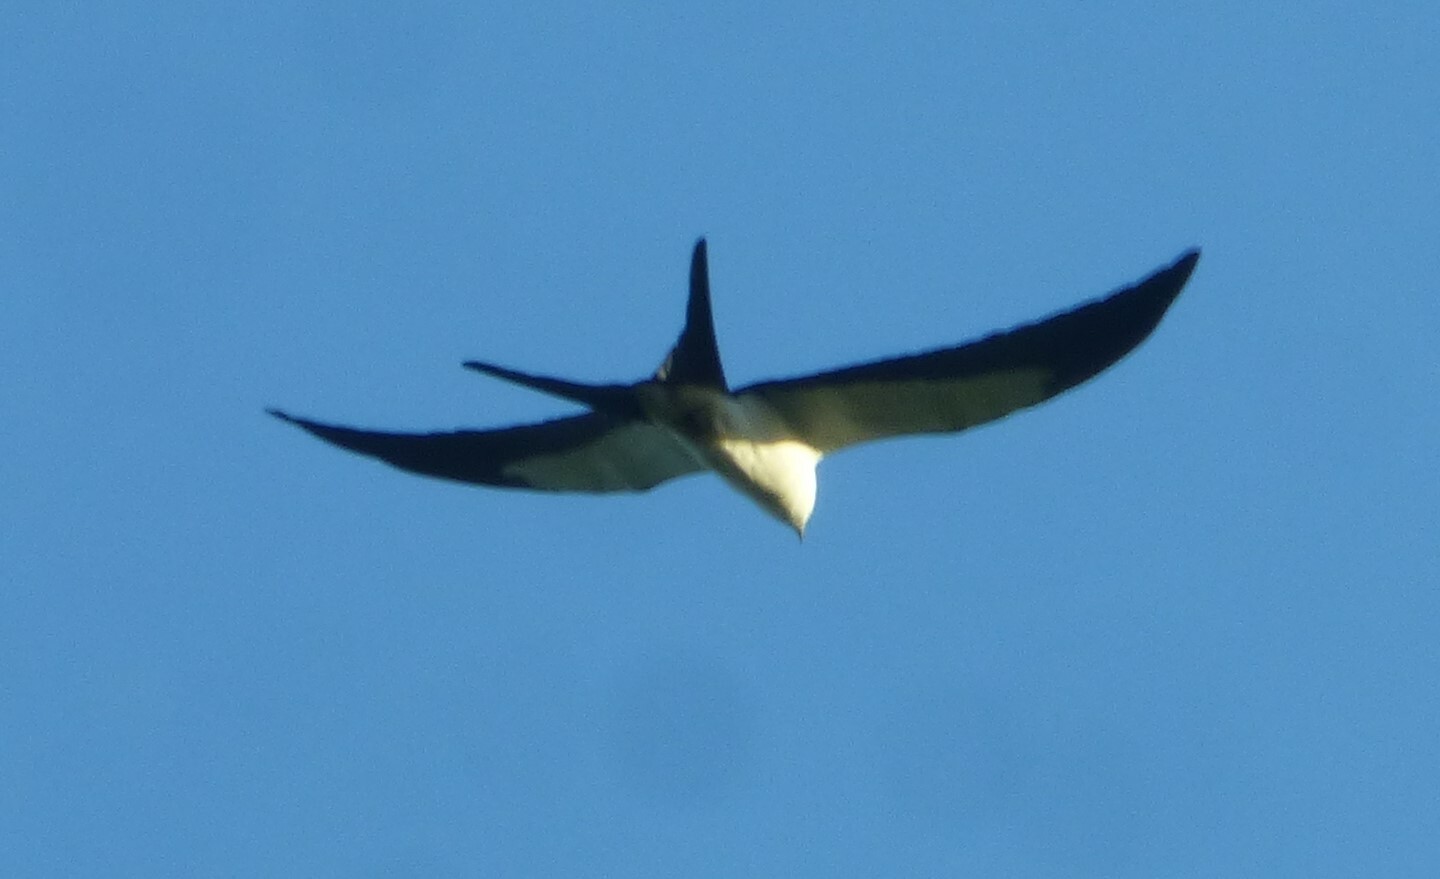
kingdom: Animalia
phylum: Chordata
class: Aves
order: Accipitriformes
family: Accipitridae
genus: Elanoides
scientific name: Elanoides forficatus
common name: Swallow-tailed kite
